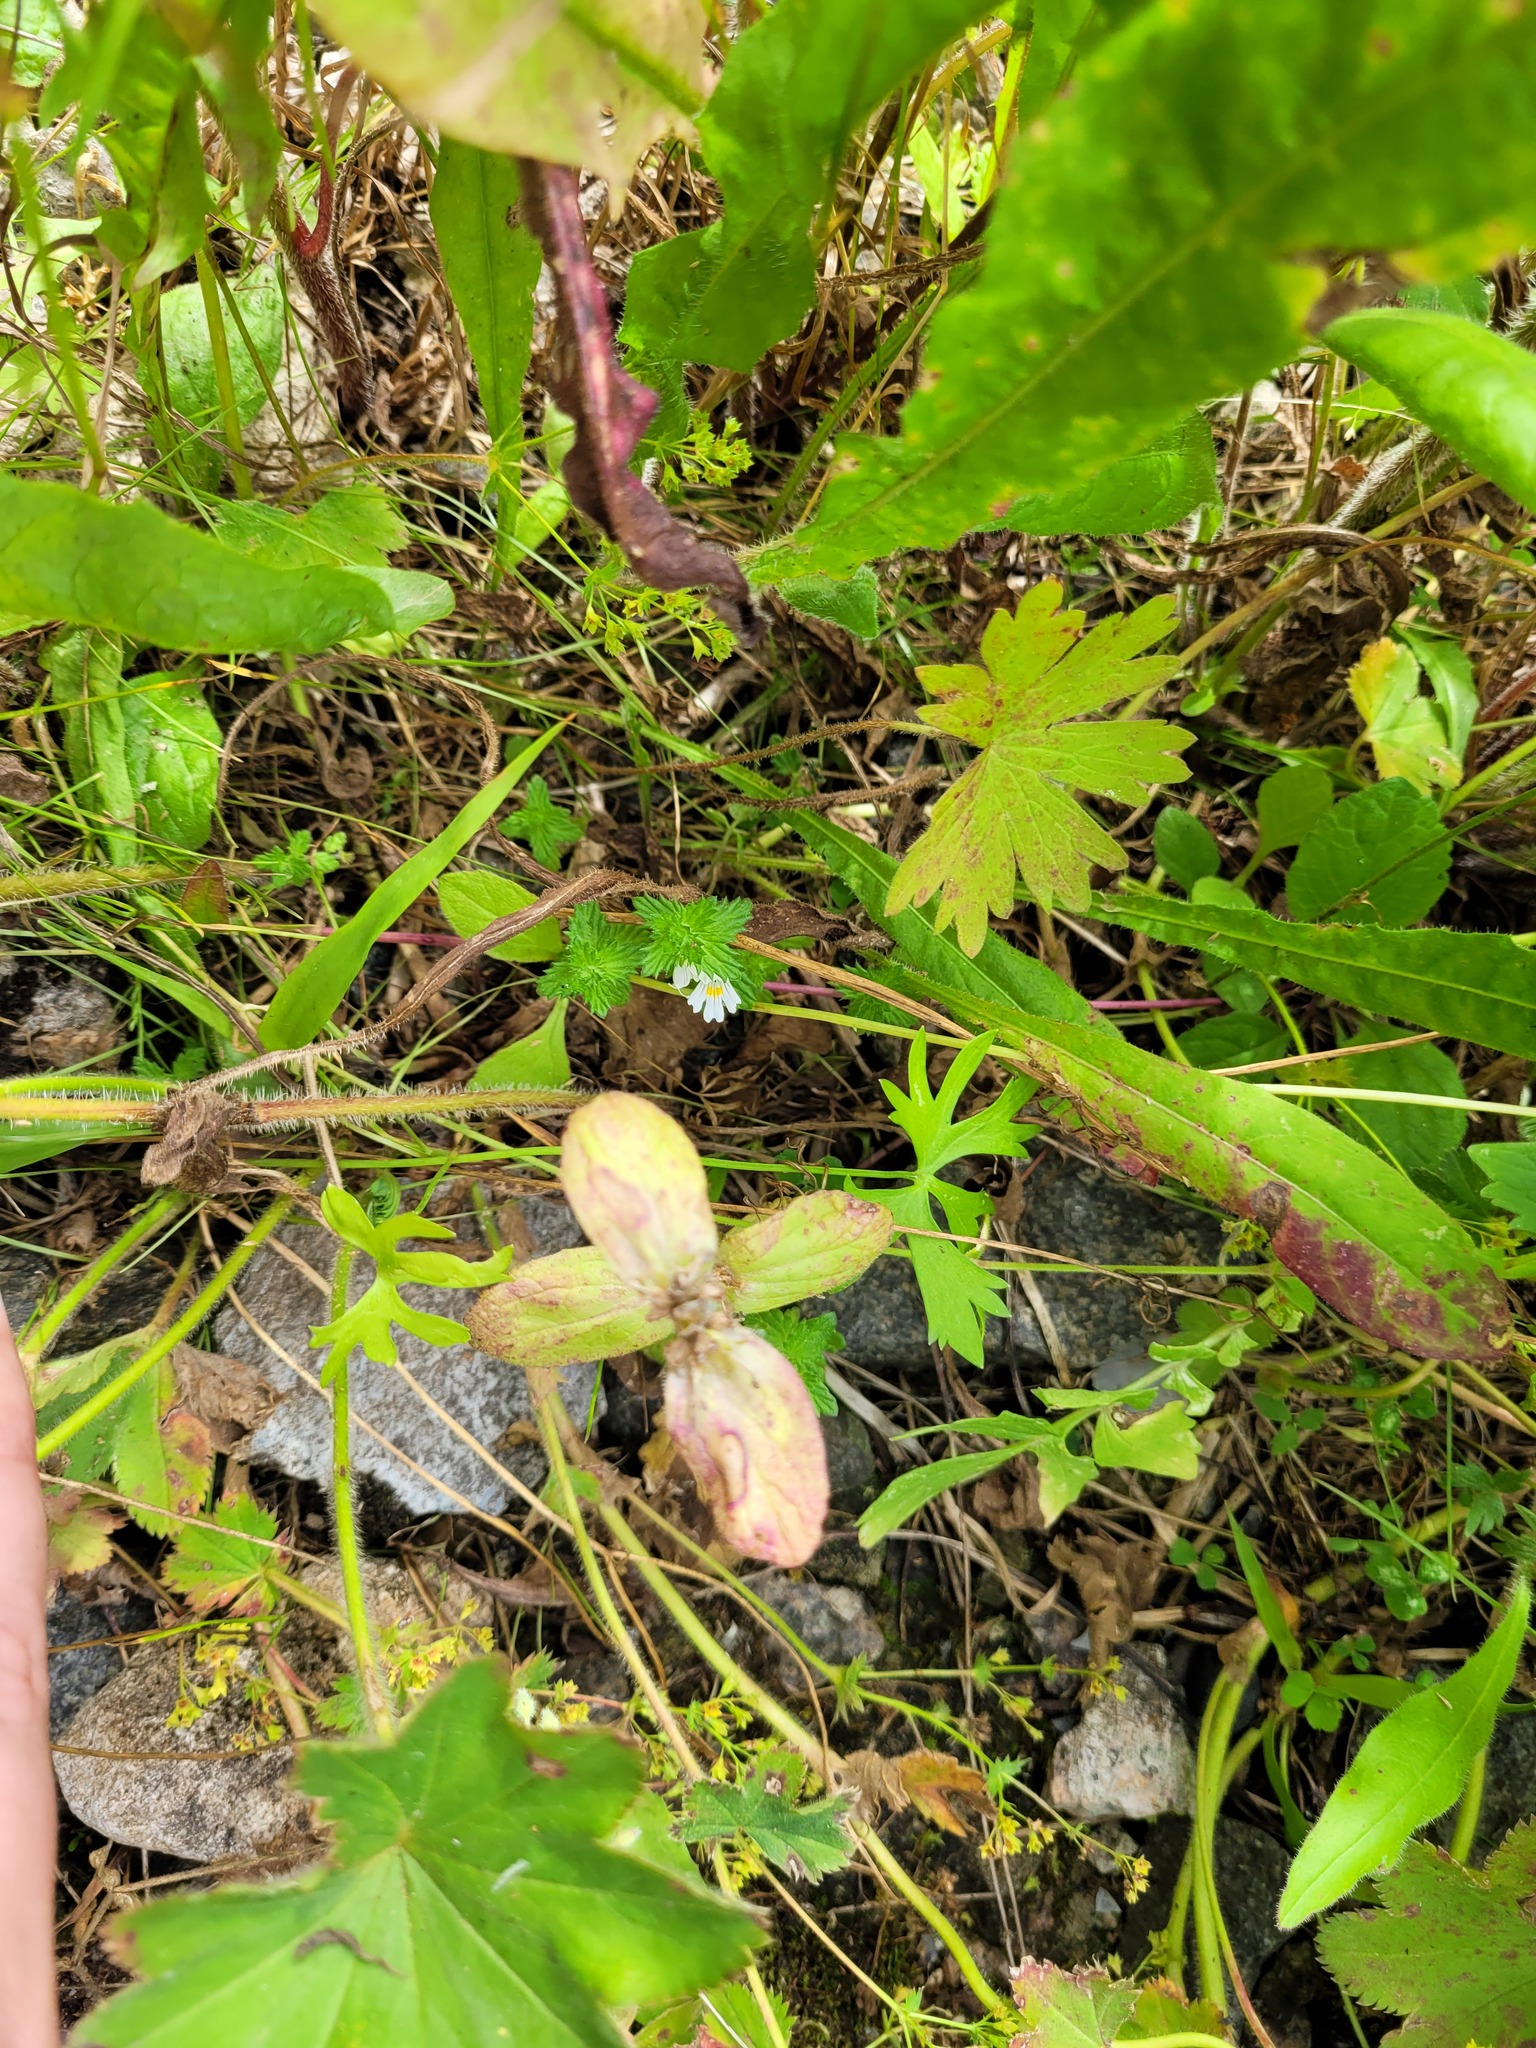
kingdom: Plantae
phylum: Tracheophyta
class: Magnoliopsida
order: Lamiales
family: Lamiaceae
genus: Ajuga
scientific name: Ajuga reptans
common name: Bugle
